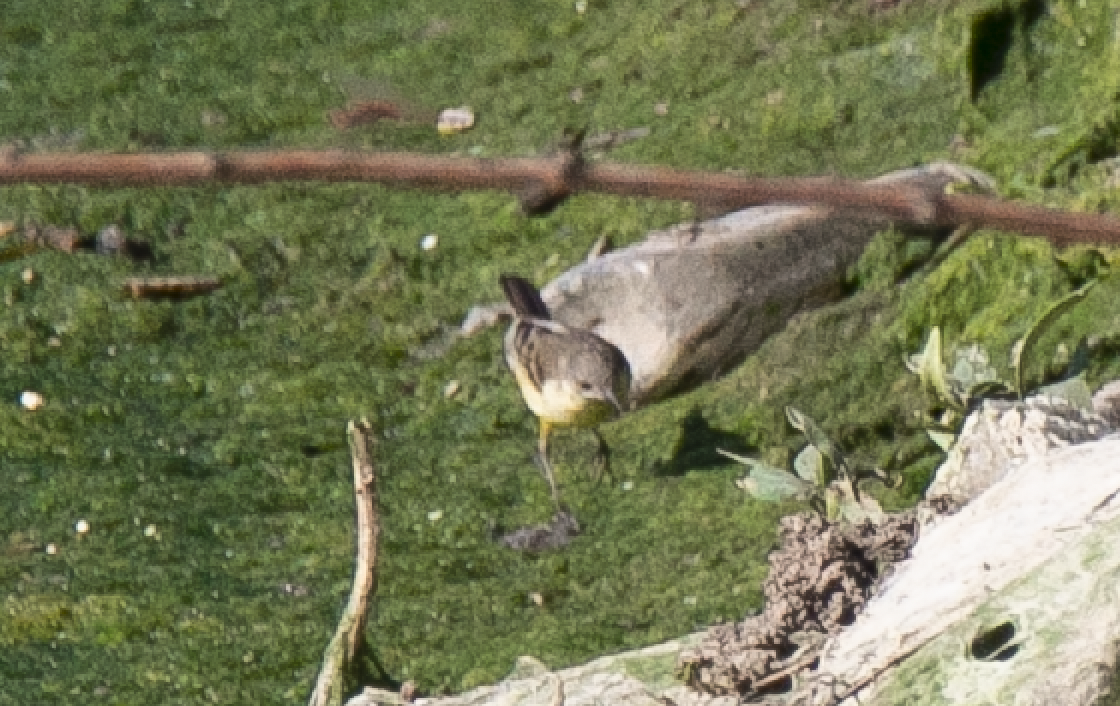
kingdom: Animalia
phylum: Chordata
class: Aves
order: Passeriformes
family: Motacillidae
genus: Motacilla
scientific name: Motacilla flava
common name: Western yellow wagtail
